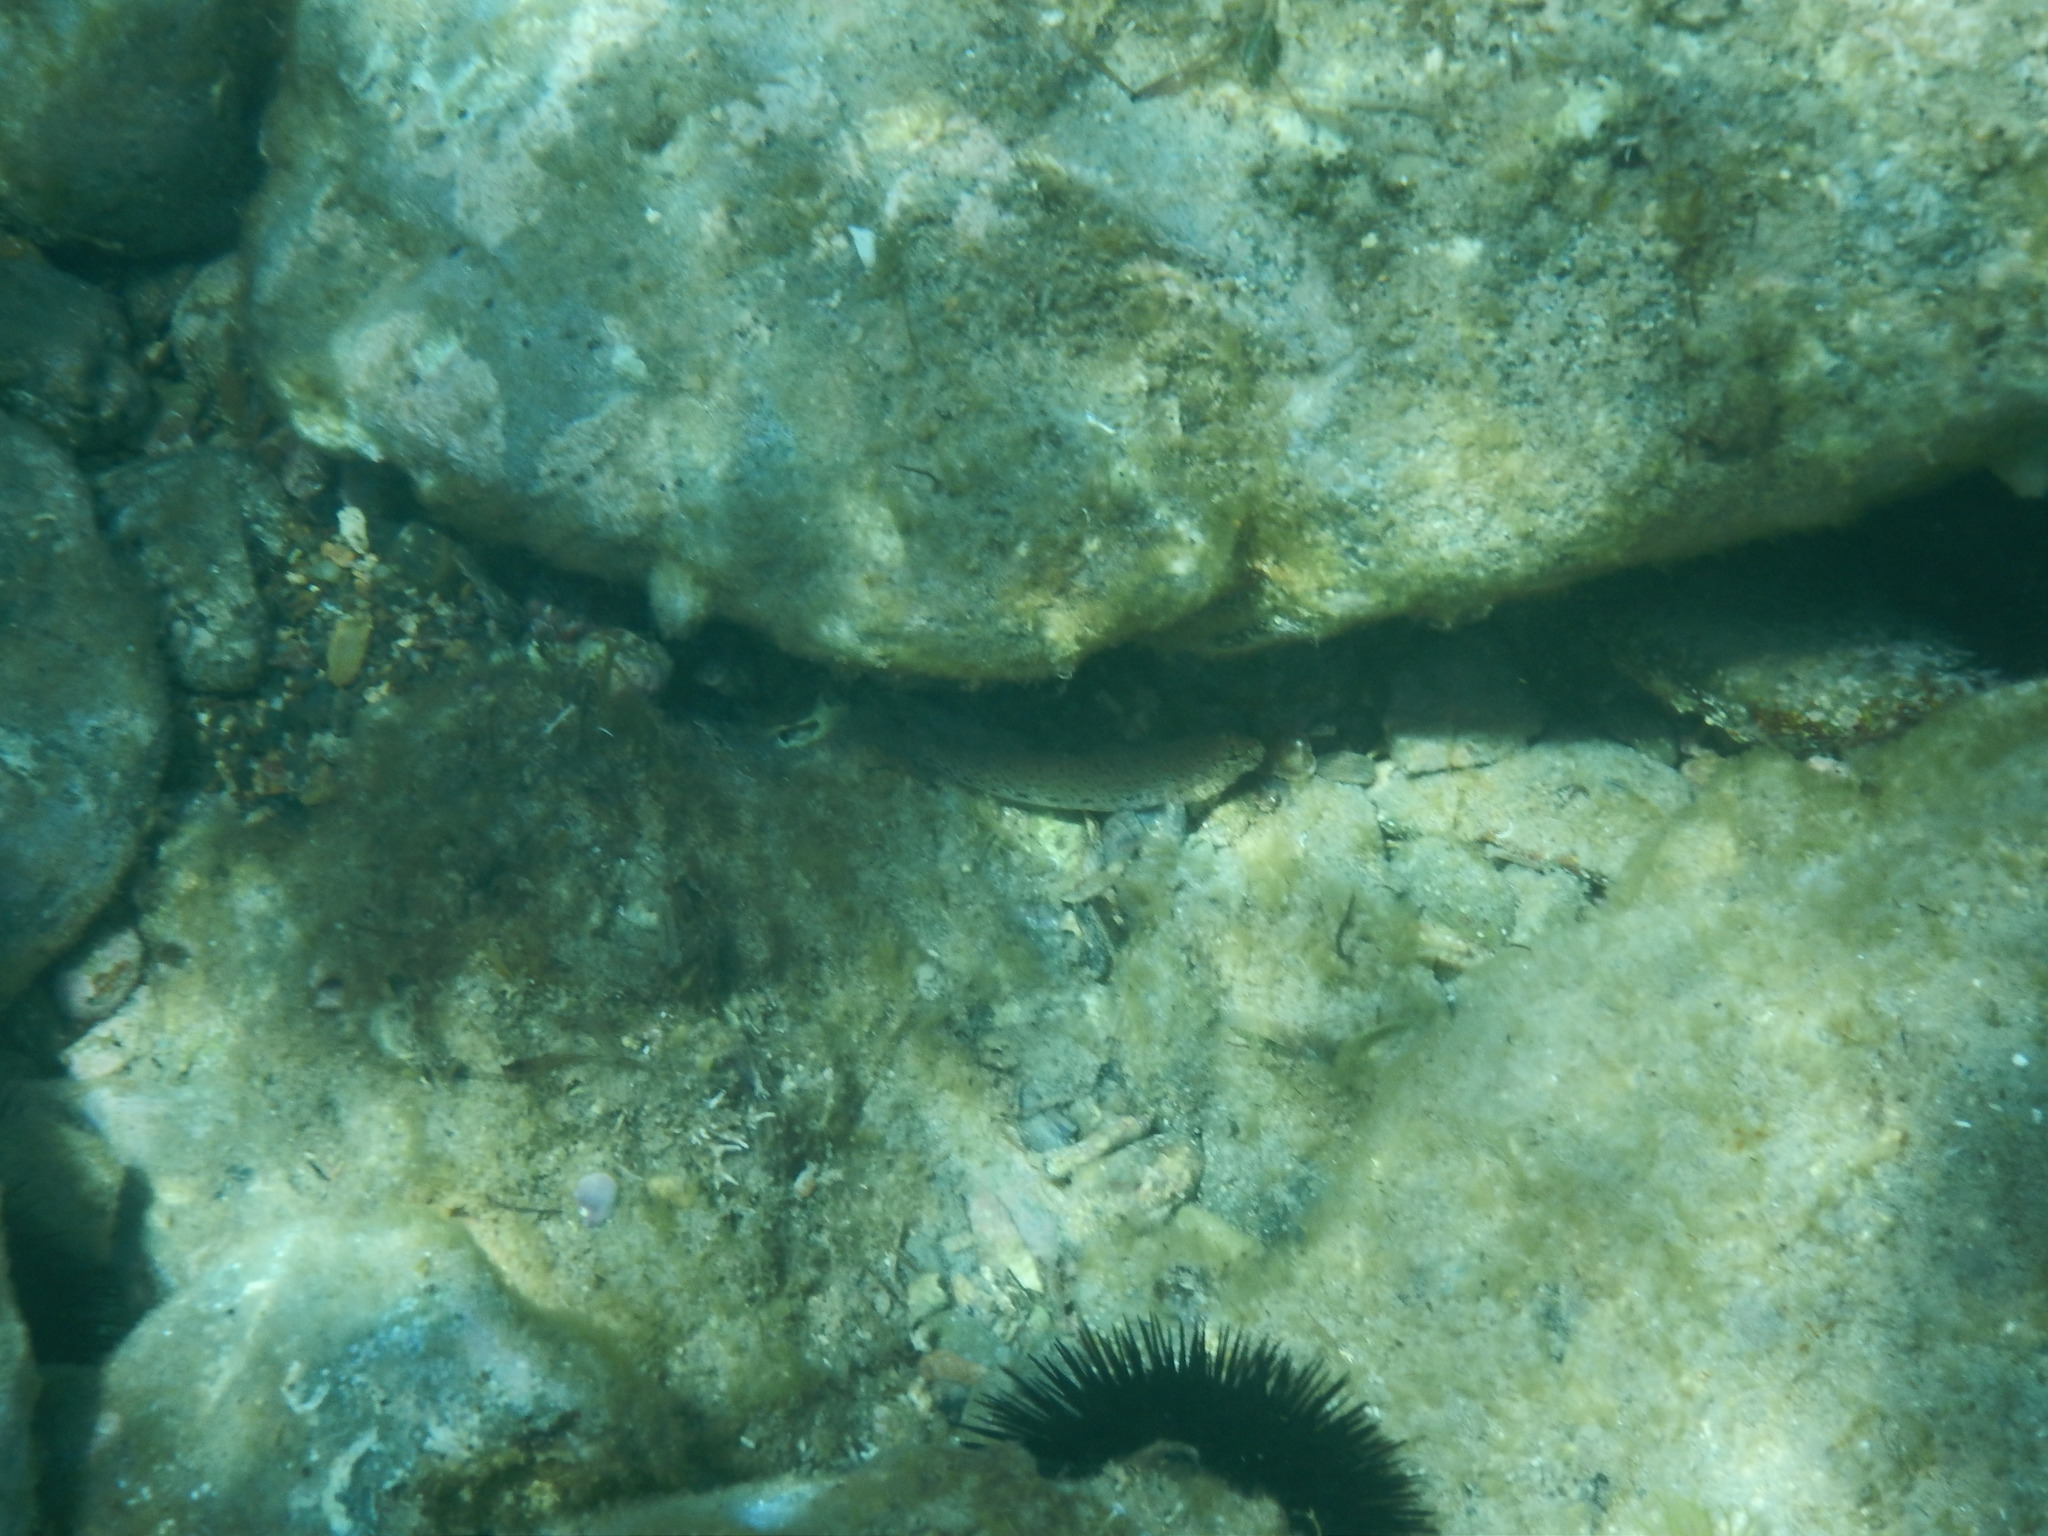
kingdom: Animalia
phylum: Chordata
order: Perciformes
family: Gobiidae
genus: Gobius
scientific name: Gobius incognitus
